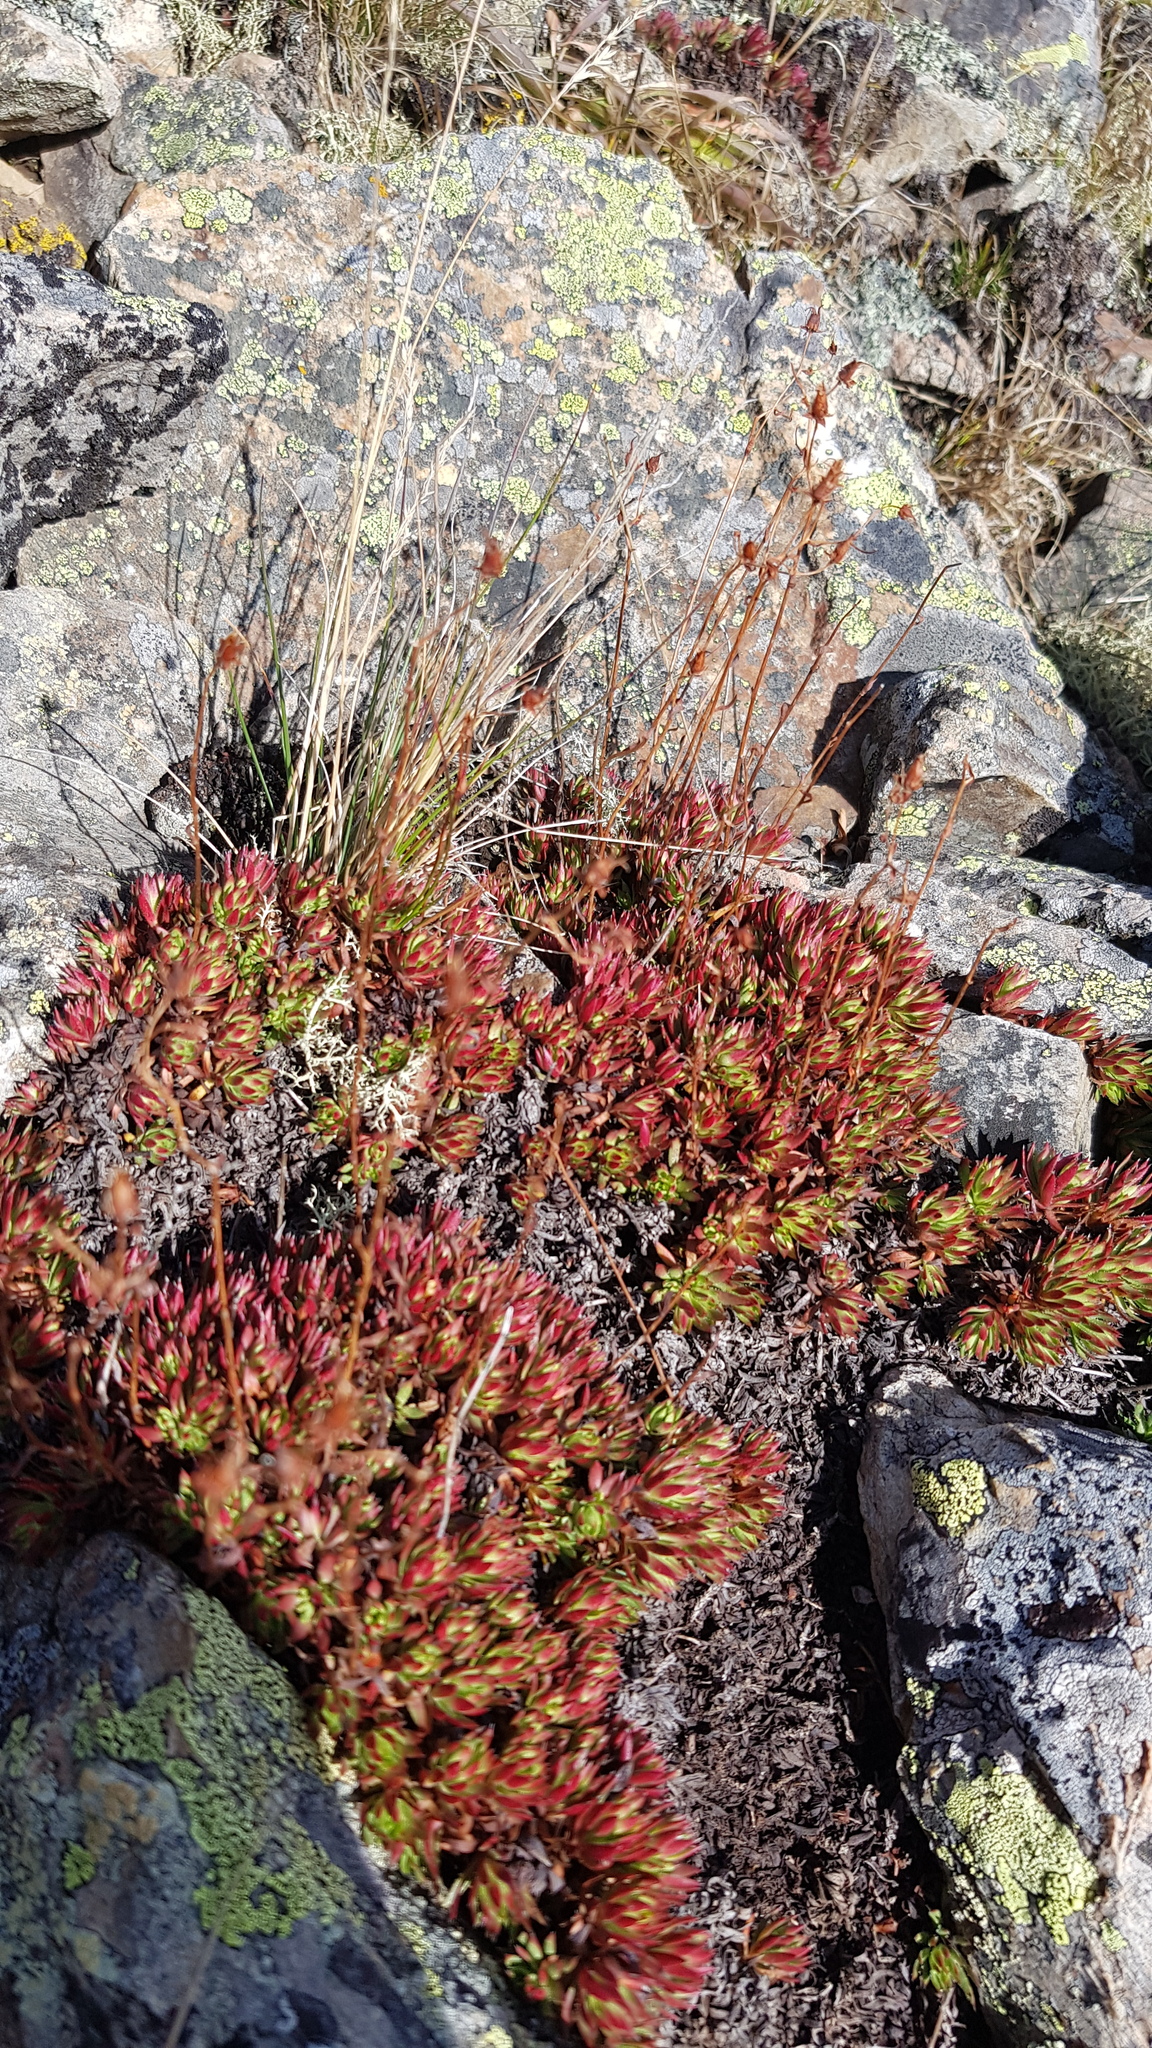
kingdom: Plantae
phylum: Tracheophyta
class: Magnoliopsida
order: Saxifragales
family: Saxifragaceae
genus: Saxifraga
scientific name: Saxifraga bronchialis
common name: Matted saxifrage
